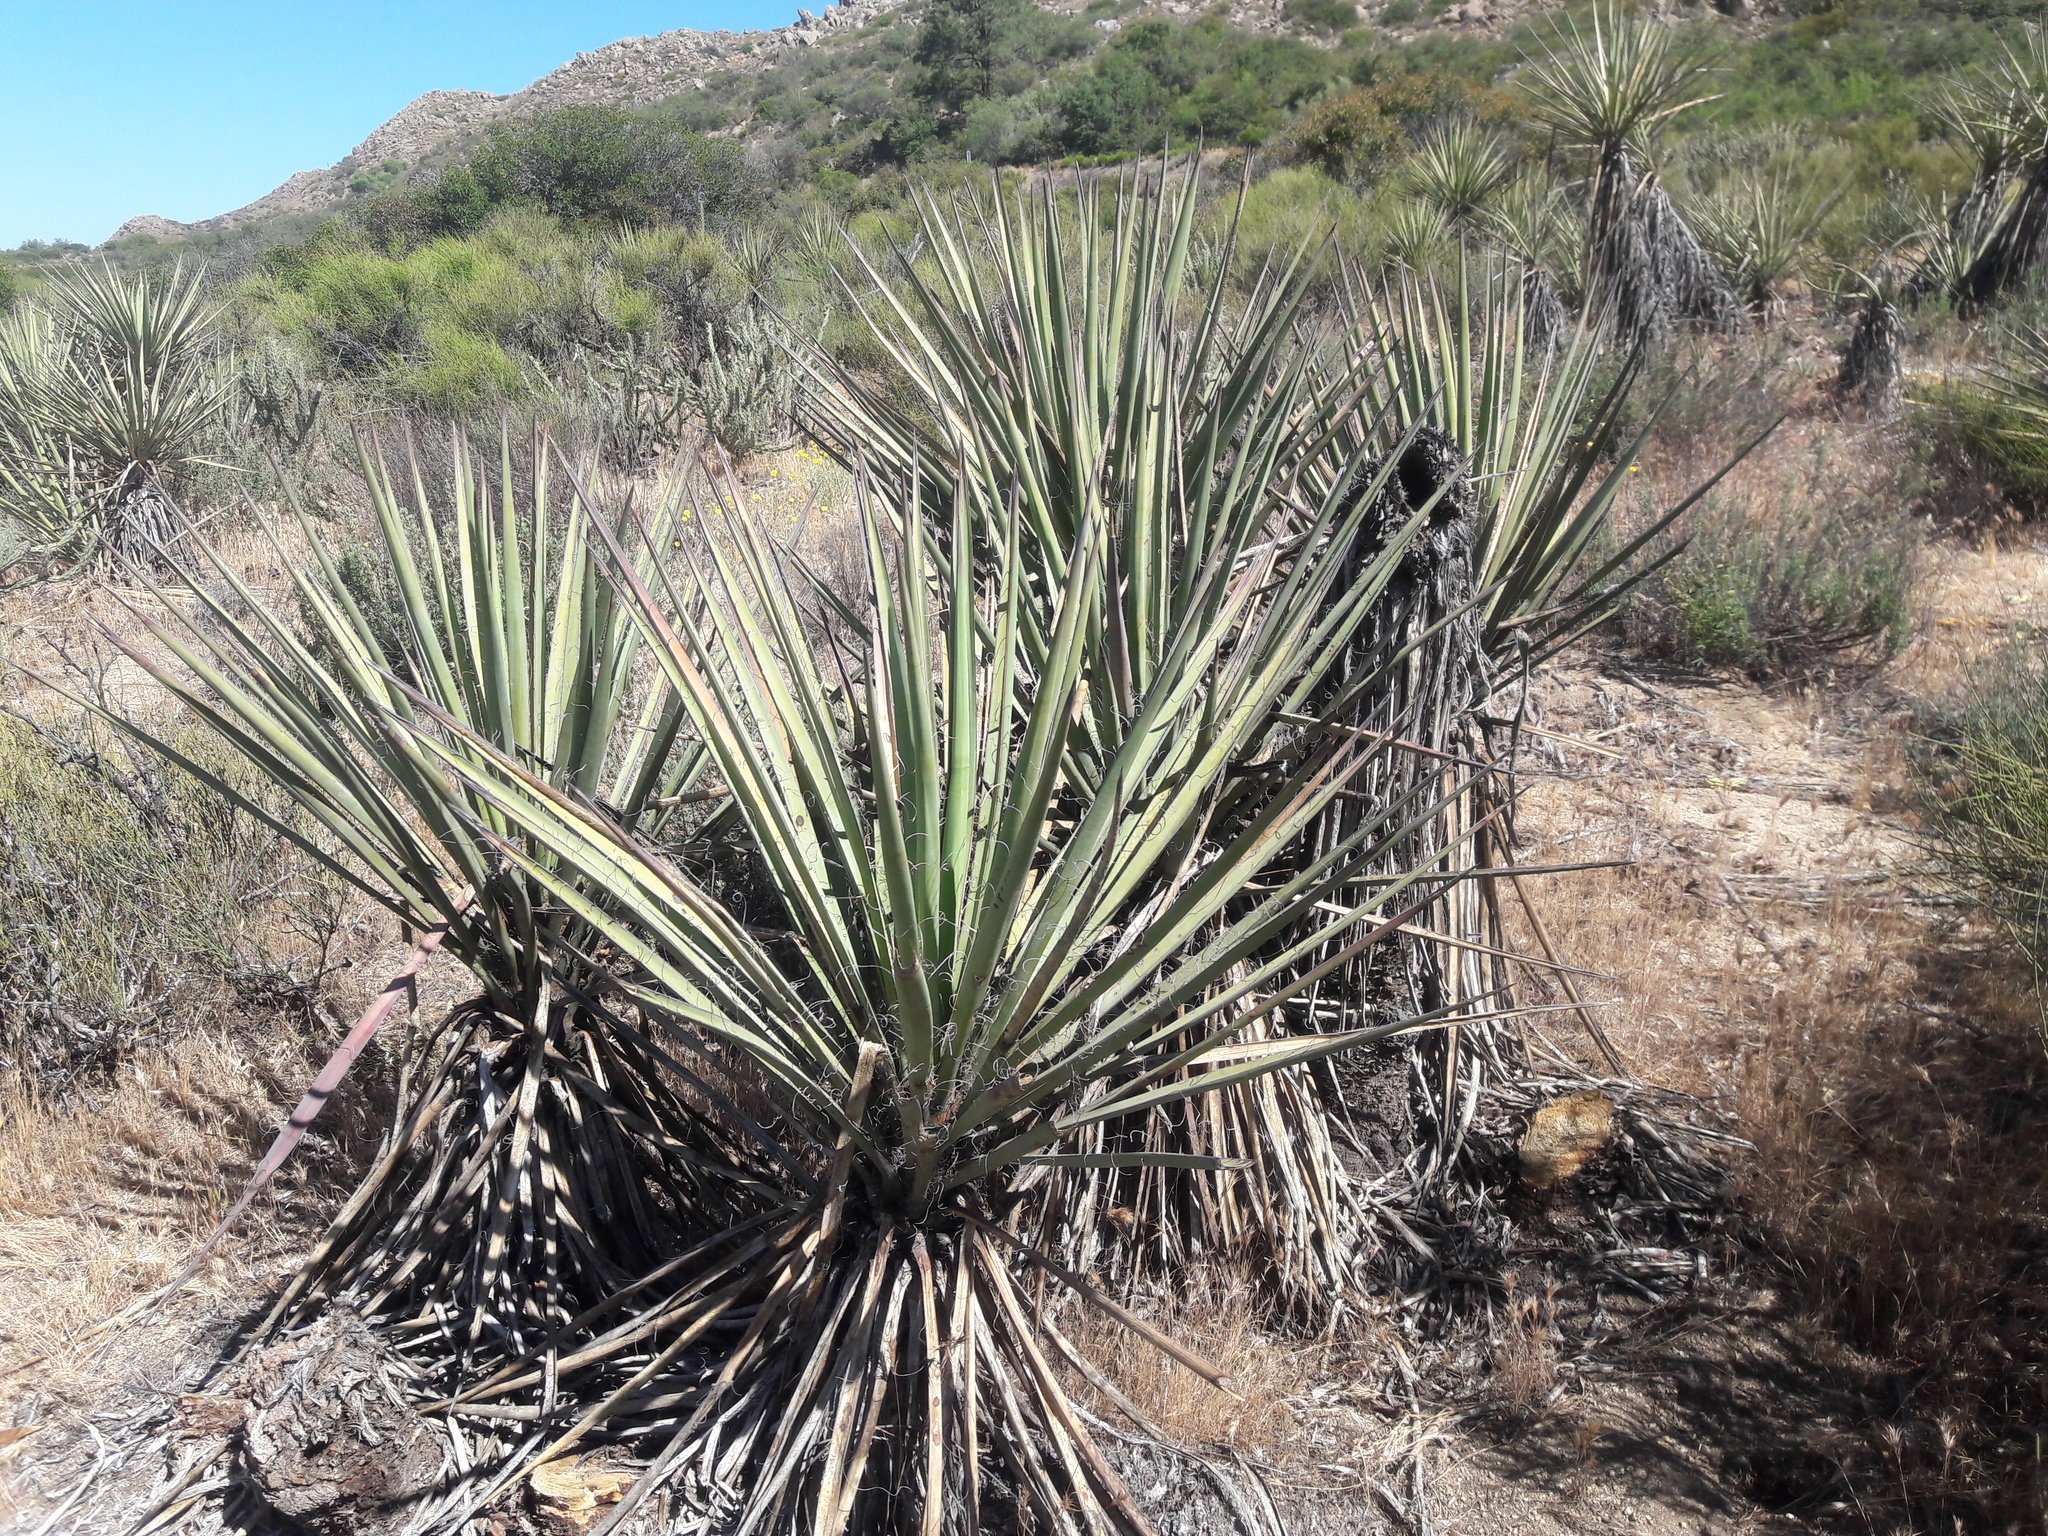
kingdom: Plantae
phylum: Tracheophyta
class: Liliopsida
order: Asparagales
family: Asparagaceae
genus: Yucca
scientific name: Yucca schidigera
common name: Mojave yucca
